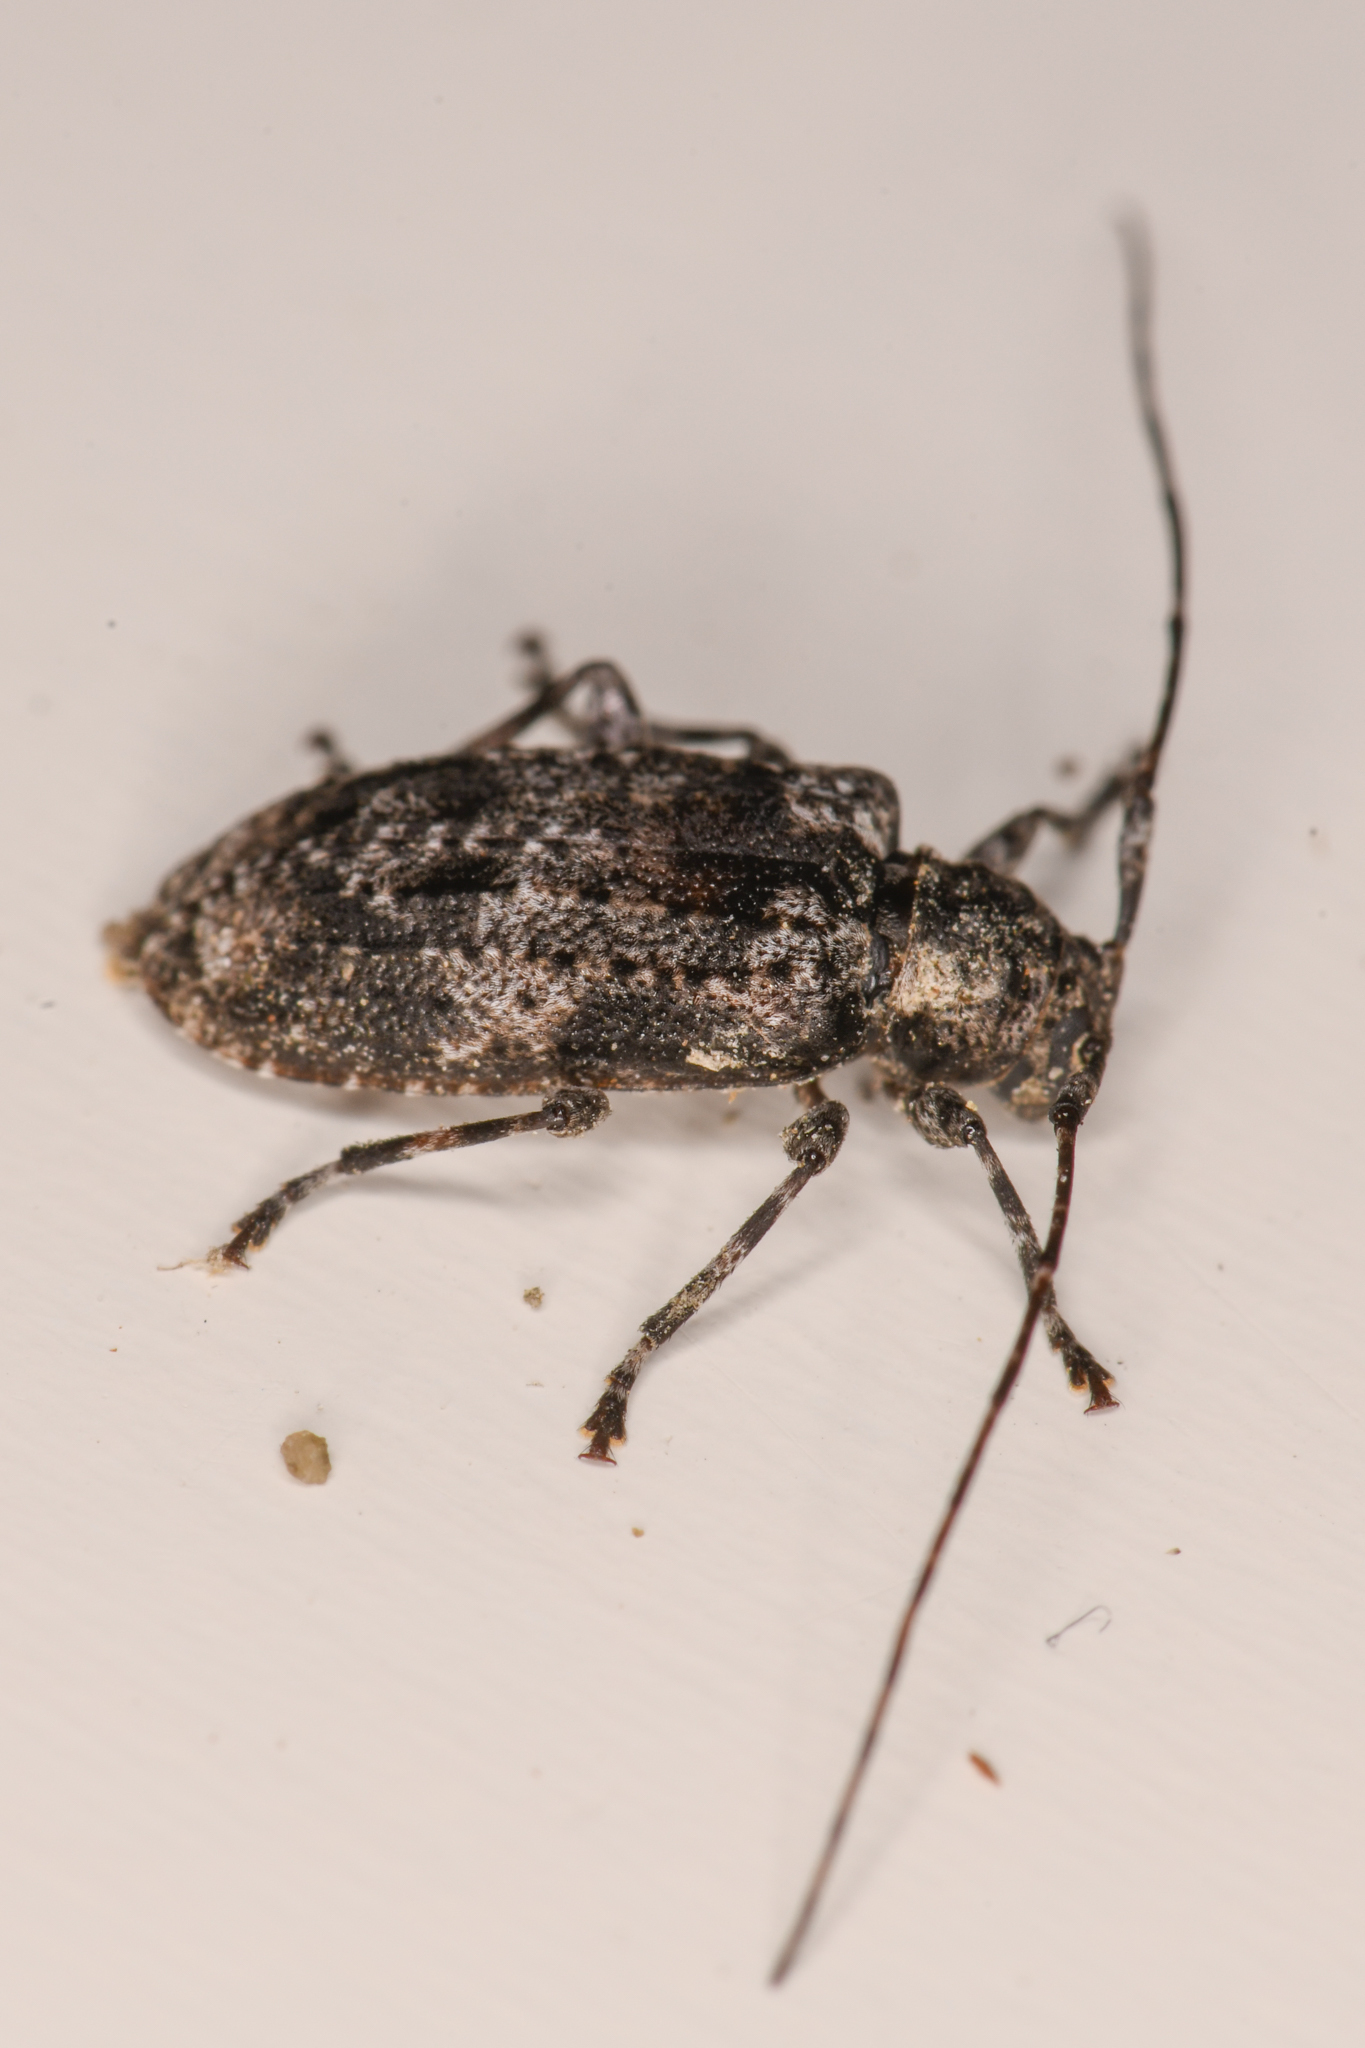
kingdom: Animalia
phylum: Arthropoda
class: Insecta
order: Coleoptera
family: Cerambycidae
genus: Pseudastylopsis
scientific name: Pseudastylopsis nebulosus
